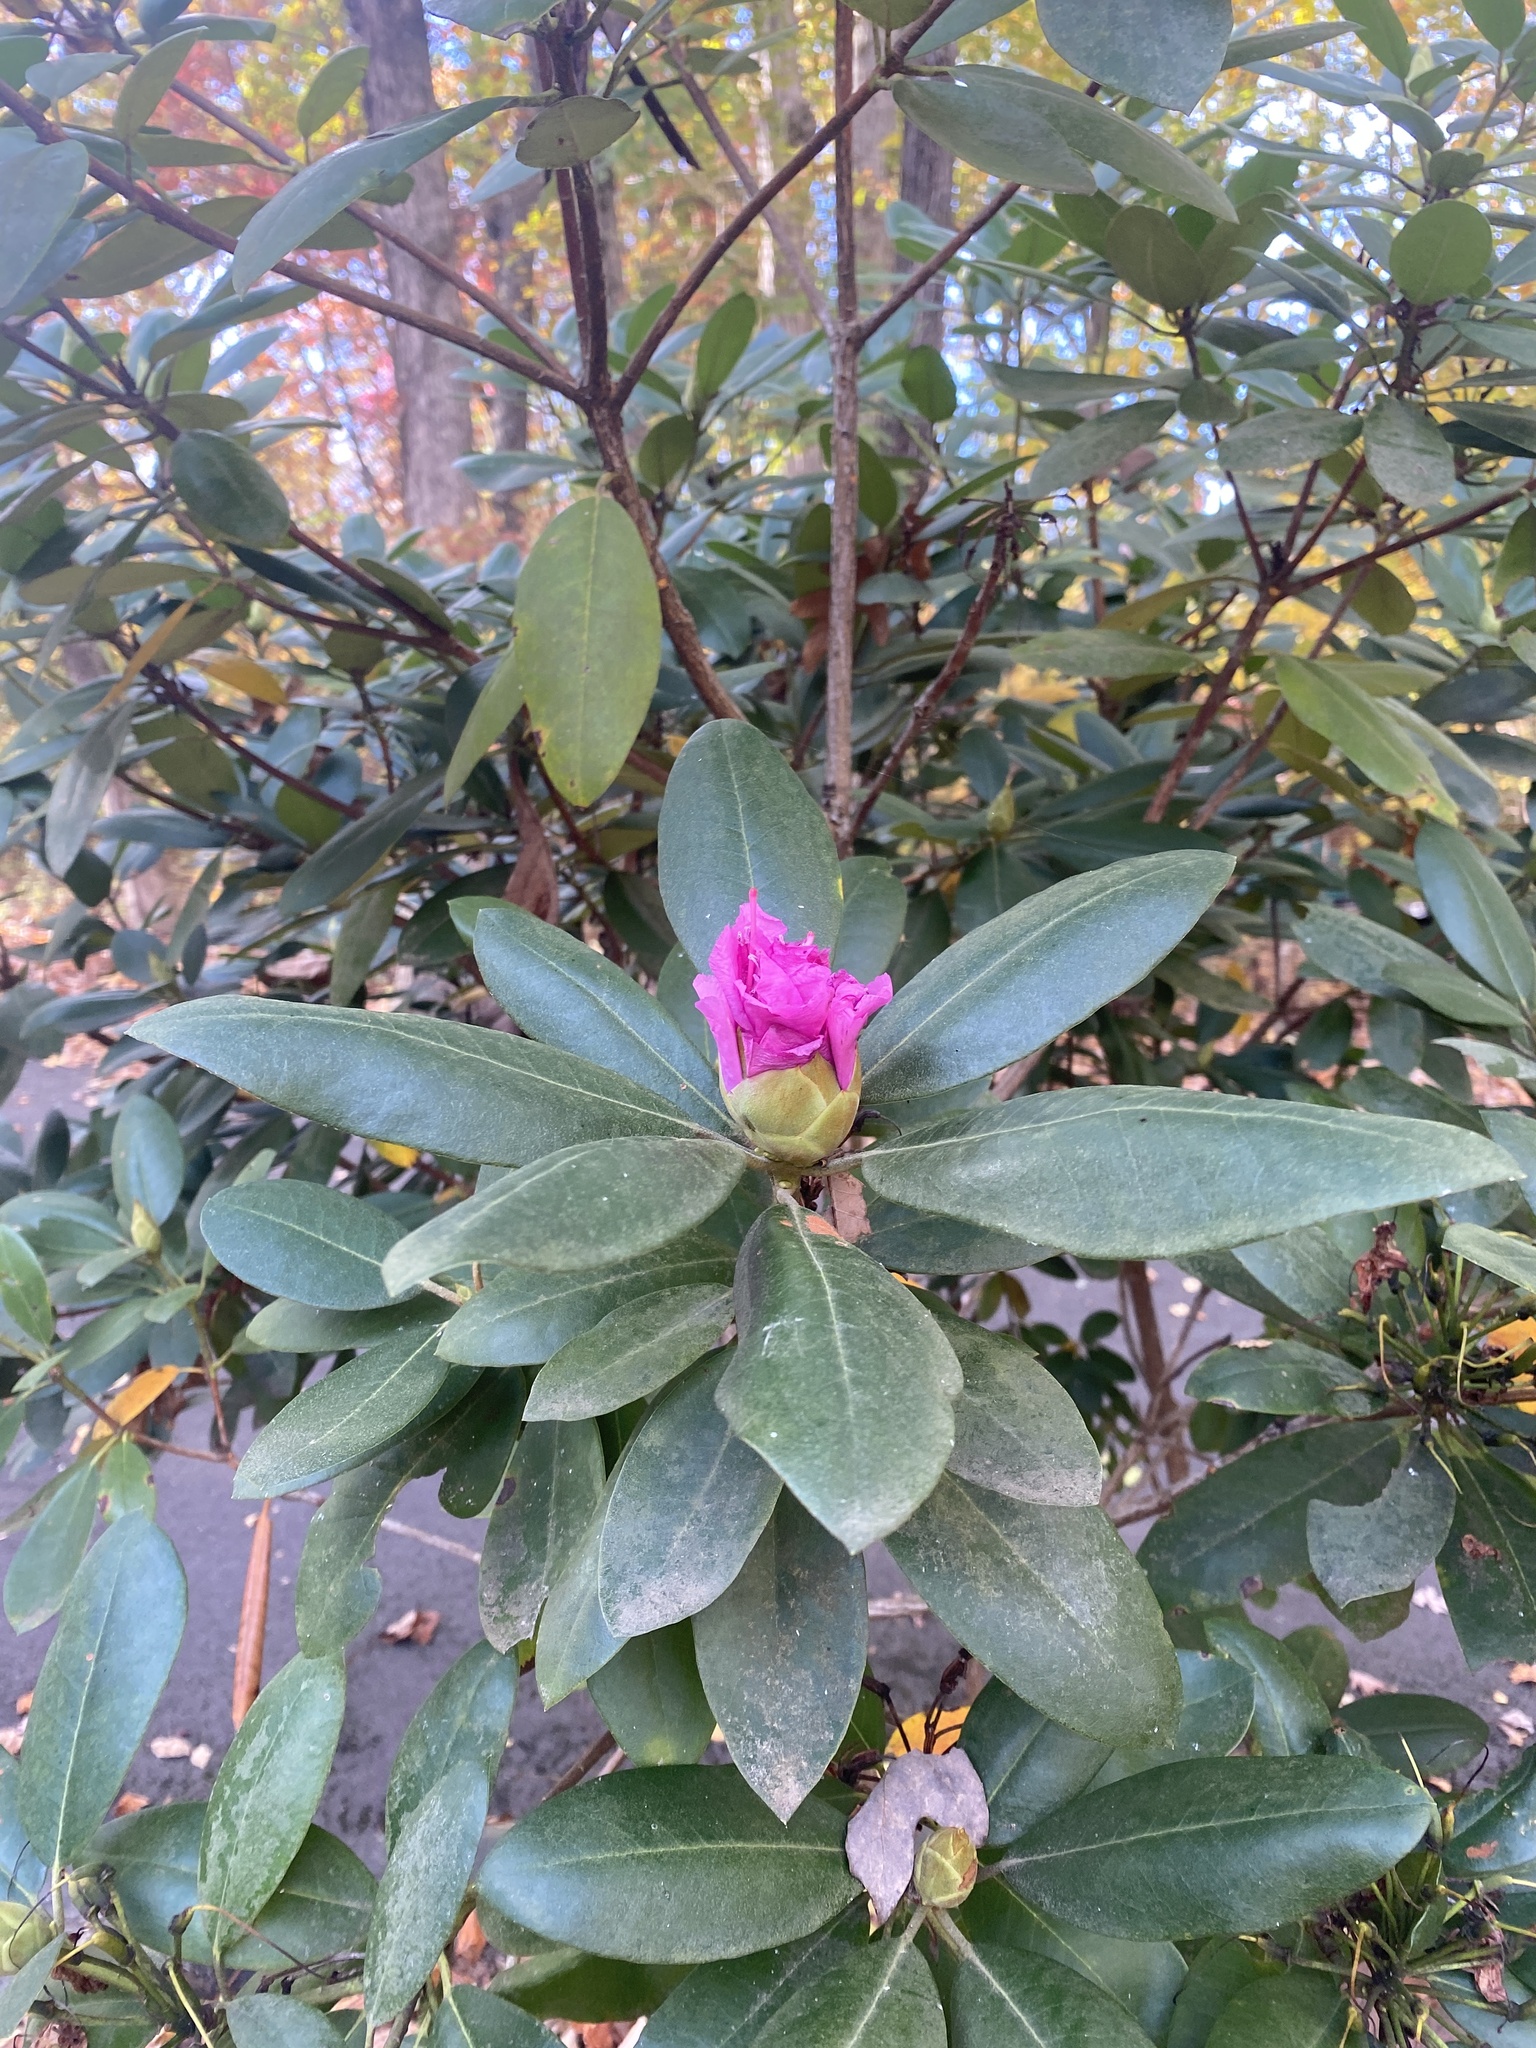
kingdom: Plantae
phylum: Tracheophyta
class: Magnoliopsida
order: Ericales
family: Ericaceae
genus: Rhododendron
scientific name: Rhododendron catawbiense
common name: Catawba rhododendron
